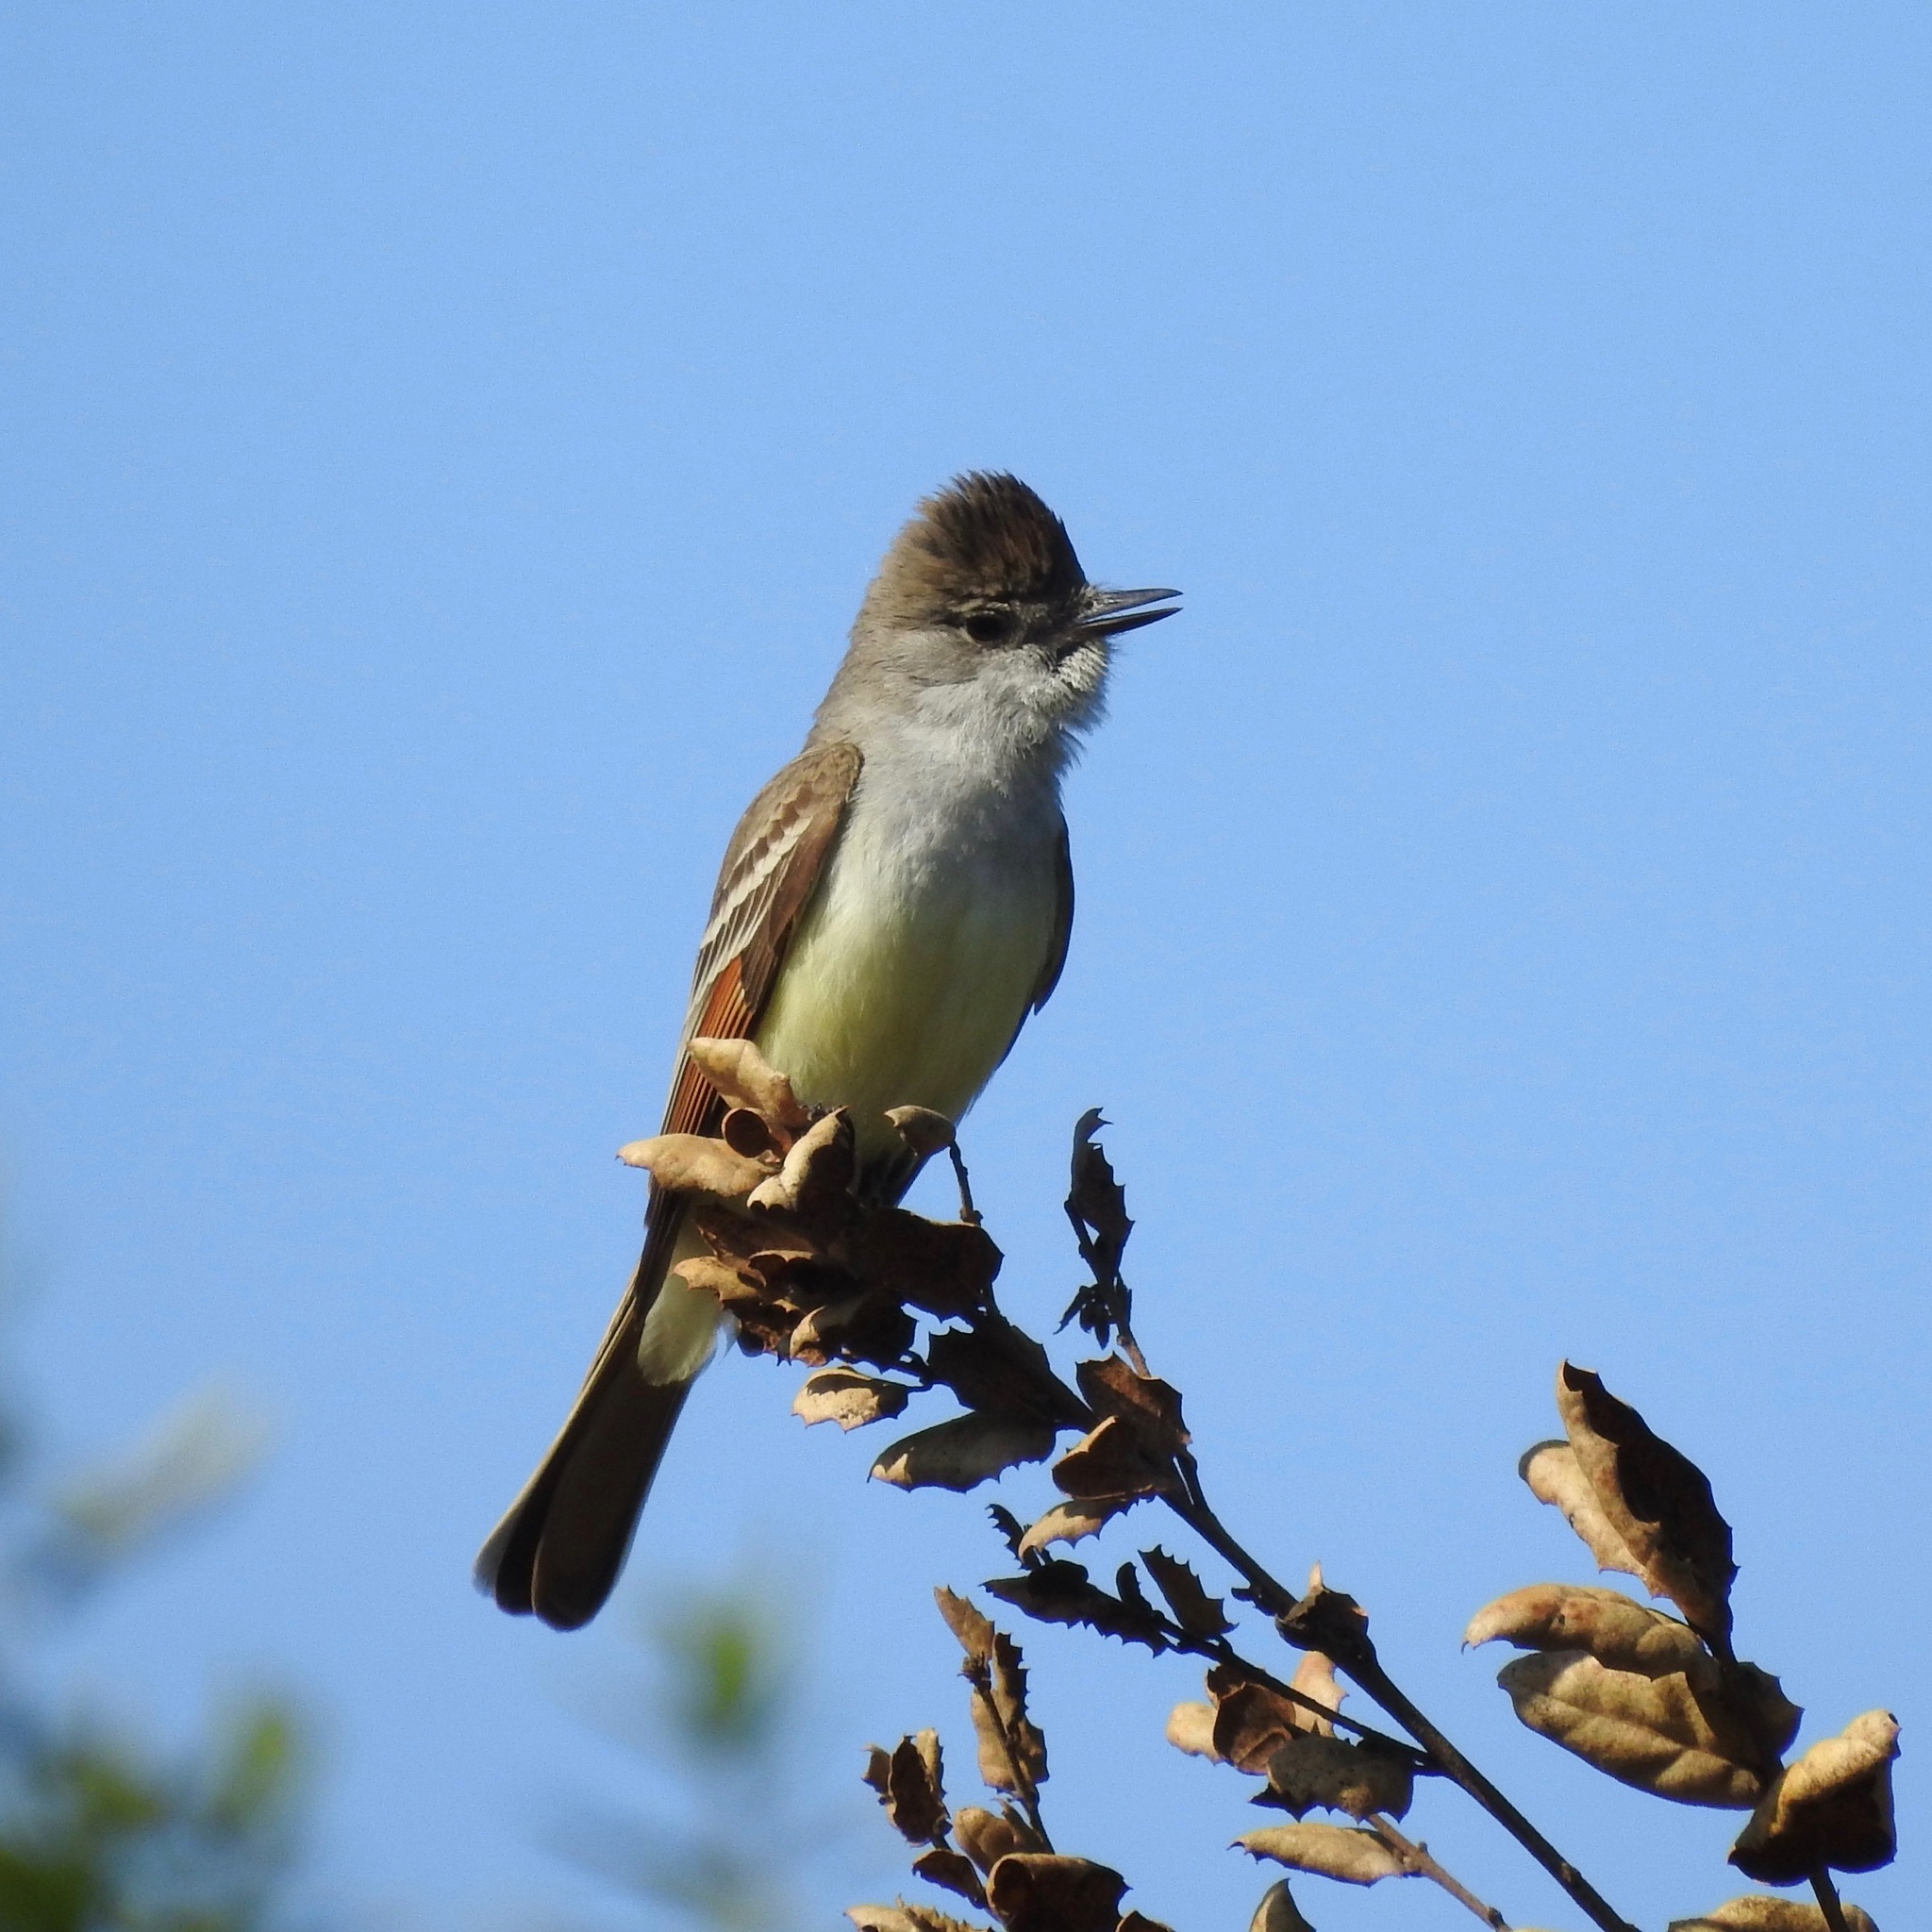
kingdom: Animalia
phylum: Chordata
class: Aves
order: Passeriformes
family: Tyrannidae
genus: Myiarchus
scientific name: Myiarchus cinerascens
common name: Ash-throated flycatcher
